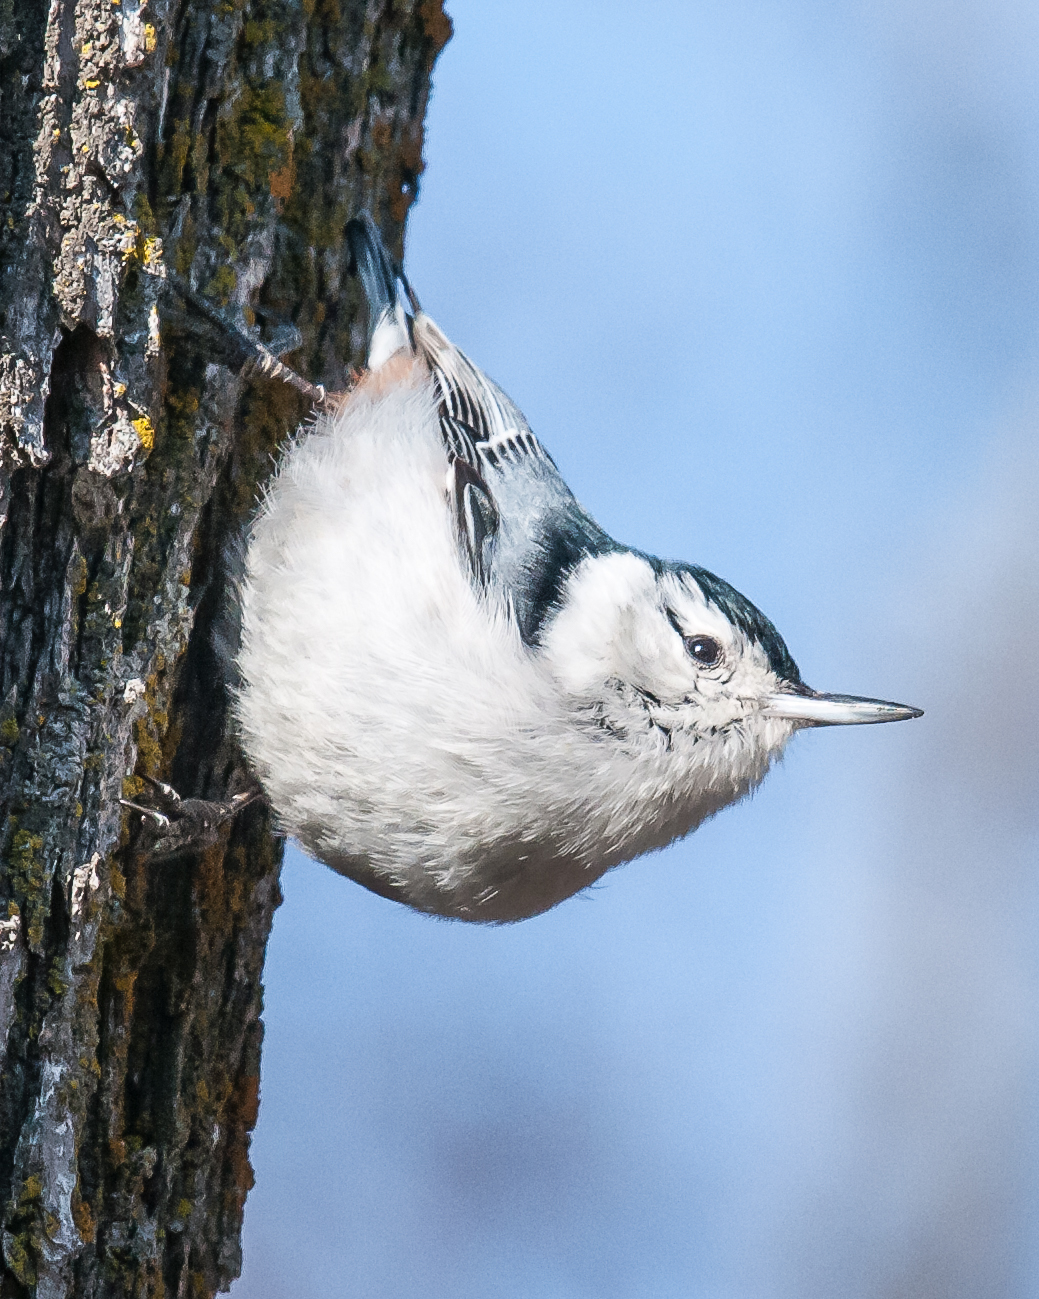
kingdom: Animalia
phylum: Chordata
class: Aves
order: Passeriformes
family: Sittidae
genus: Sitta
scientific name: Sitta carolinensis
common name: White-breasted nuthatch
